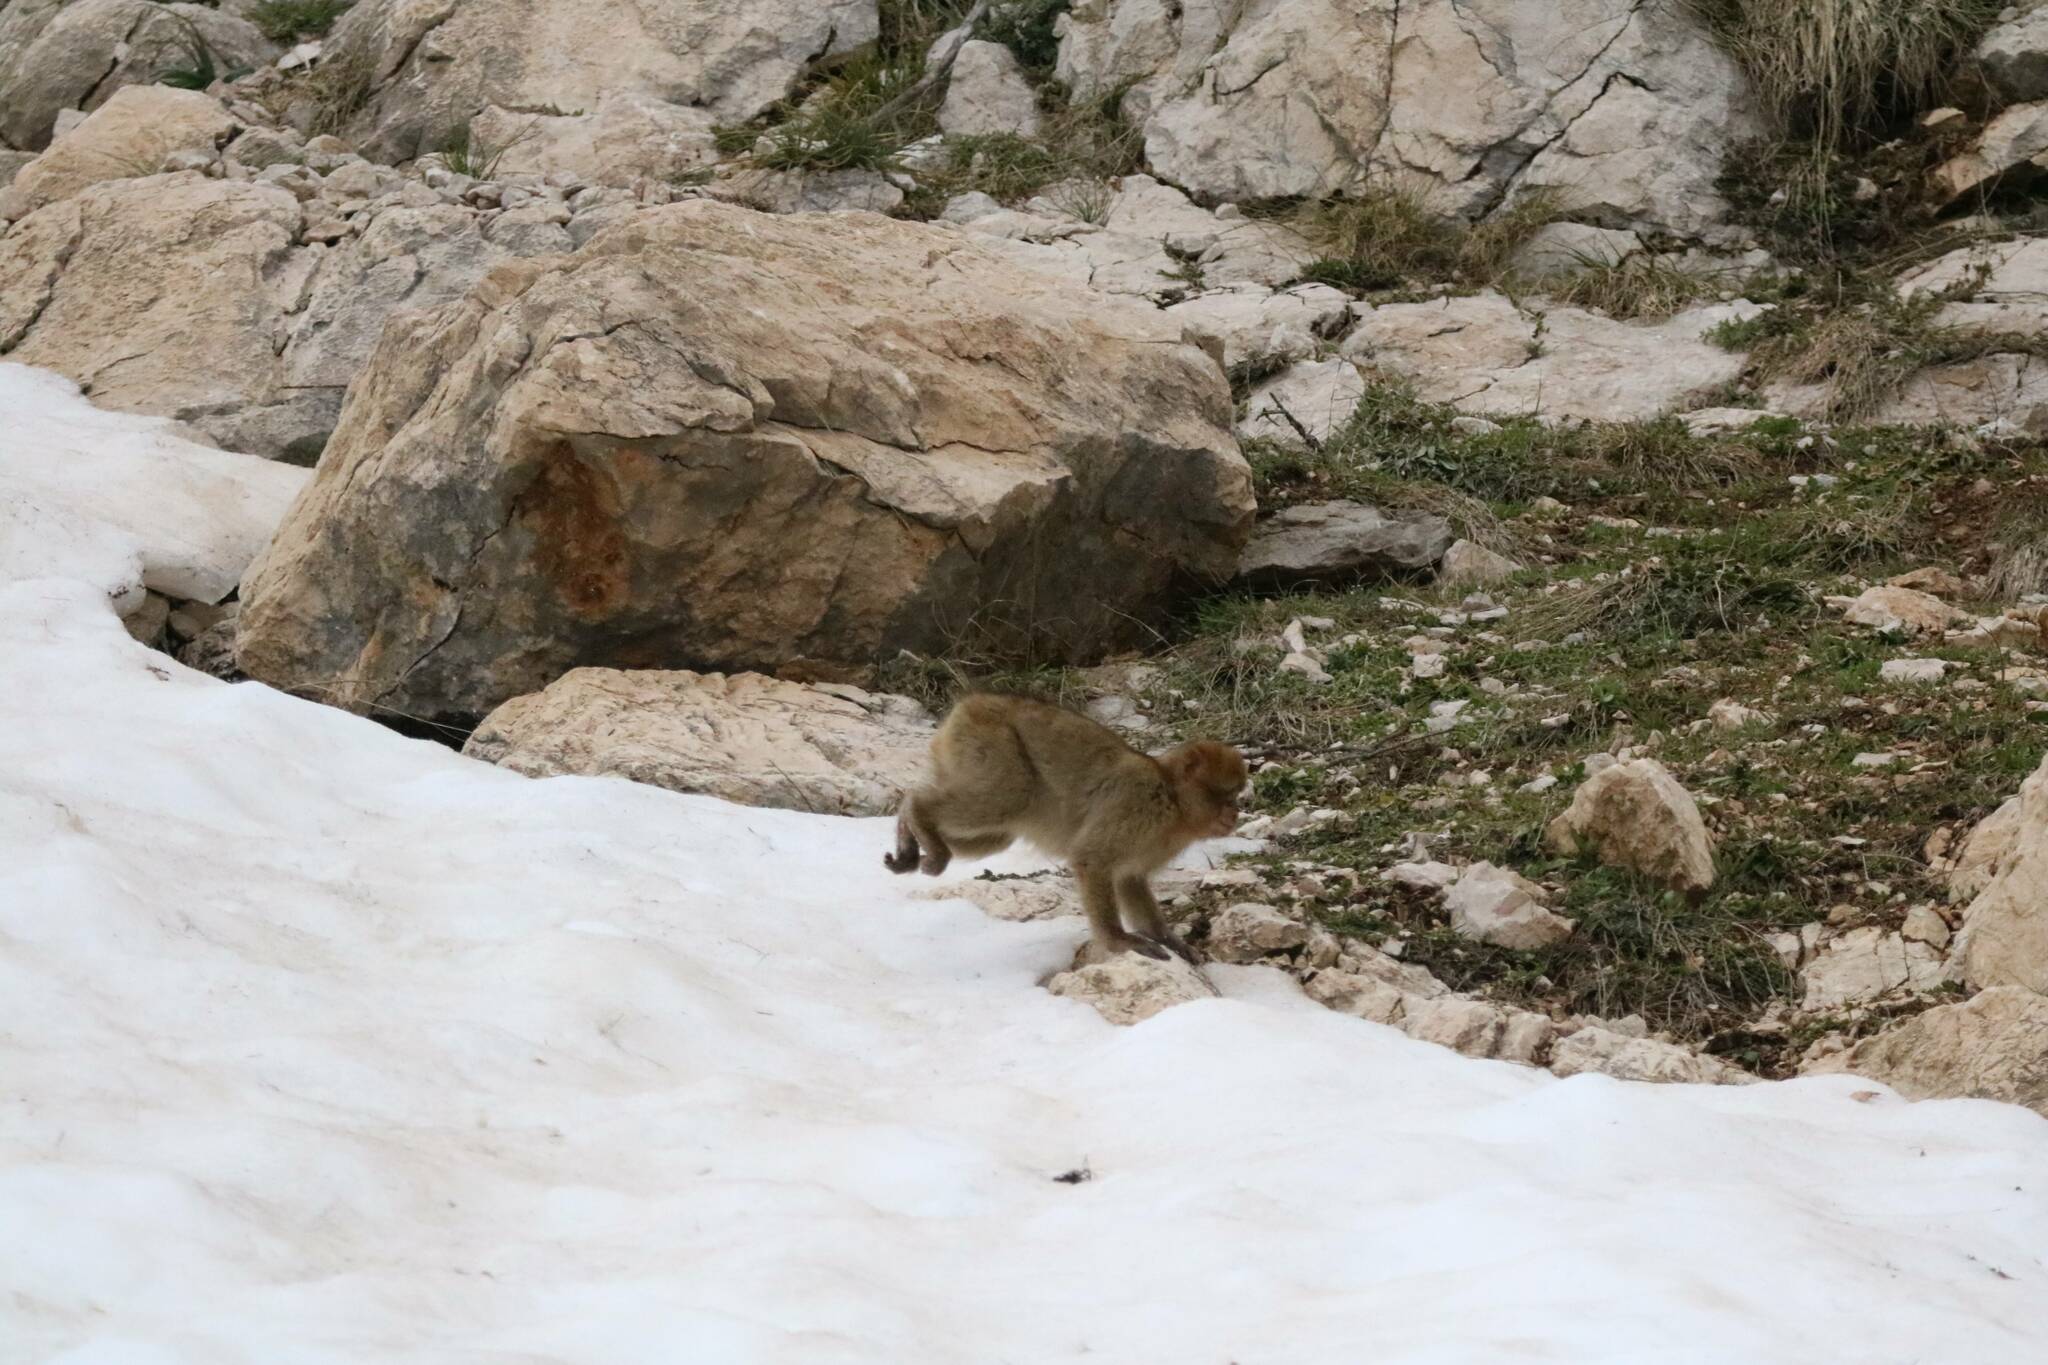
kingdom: Animalia
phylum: Chordata
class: Mammalia
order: Primates
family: Cercopithecidae
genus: Macaca
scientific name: Macaca sylvanus
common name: Barbary macaque
